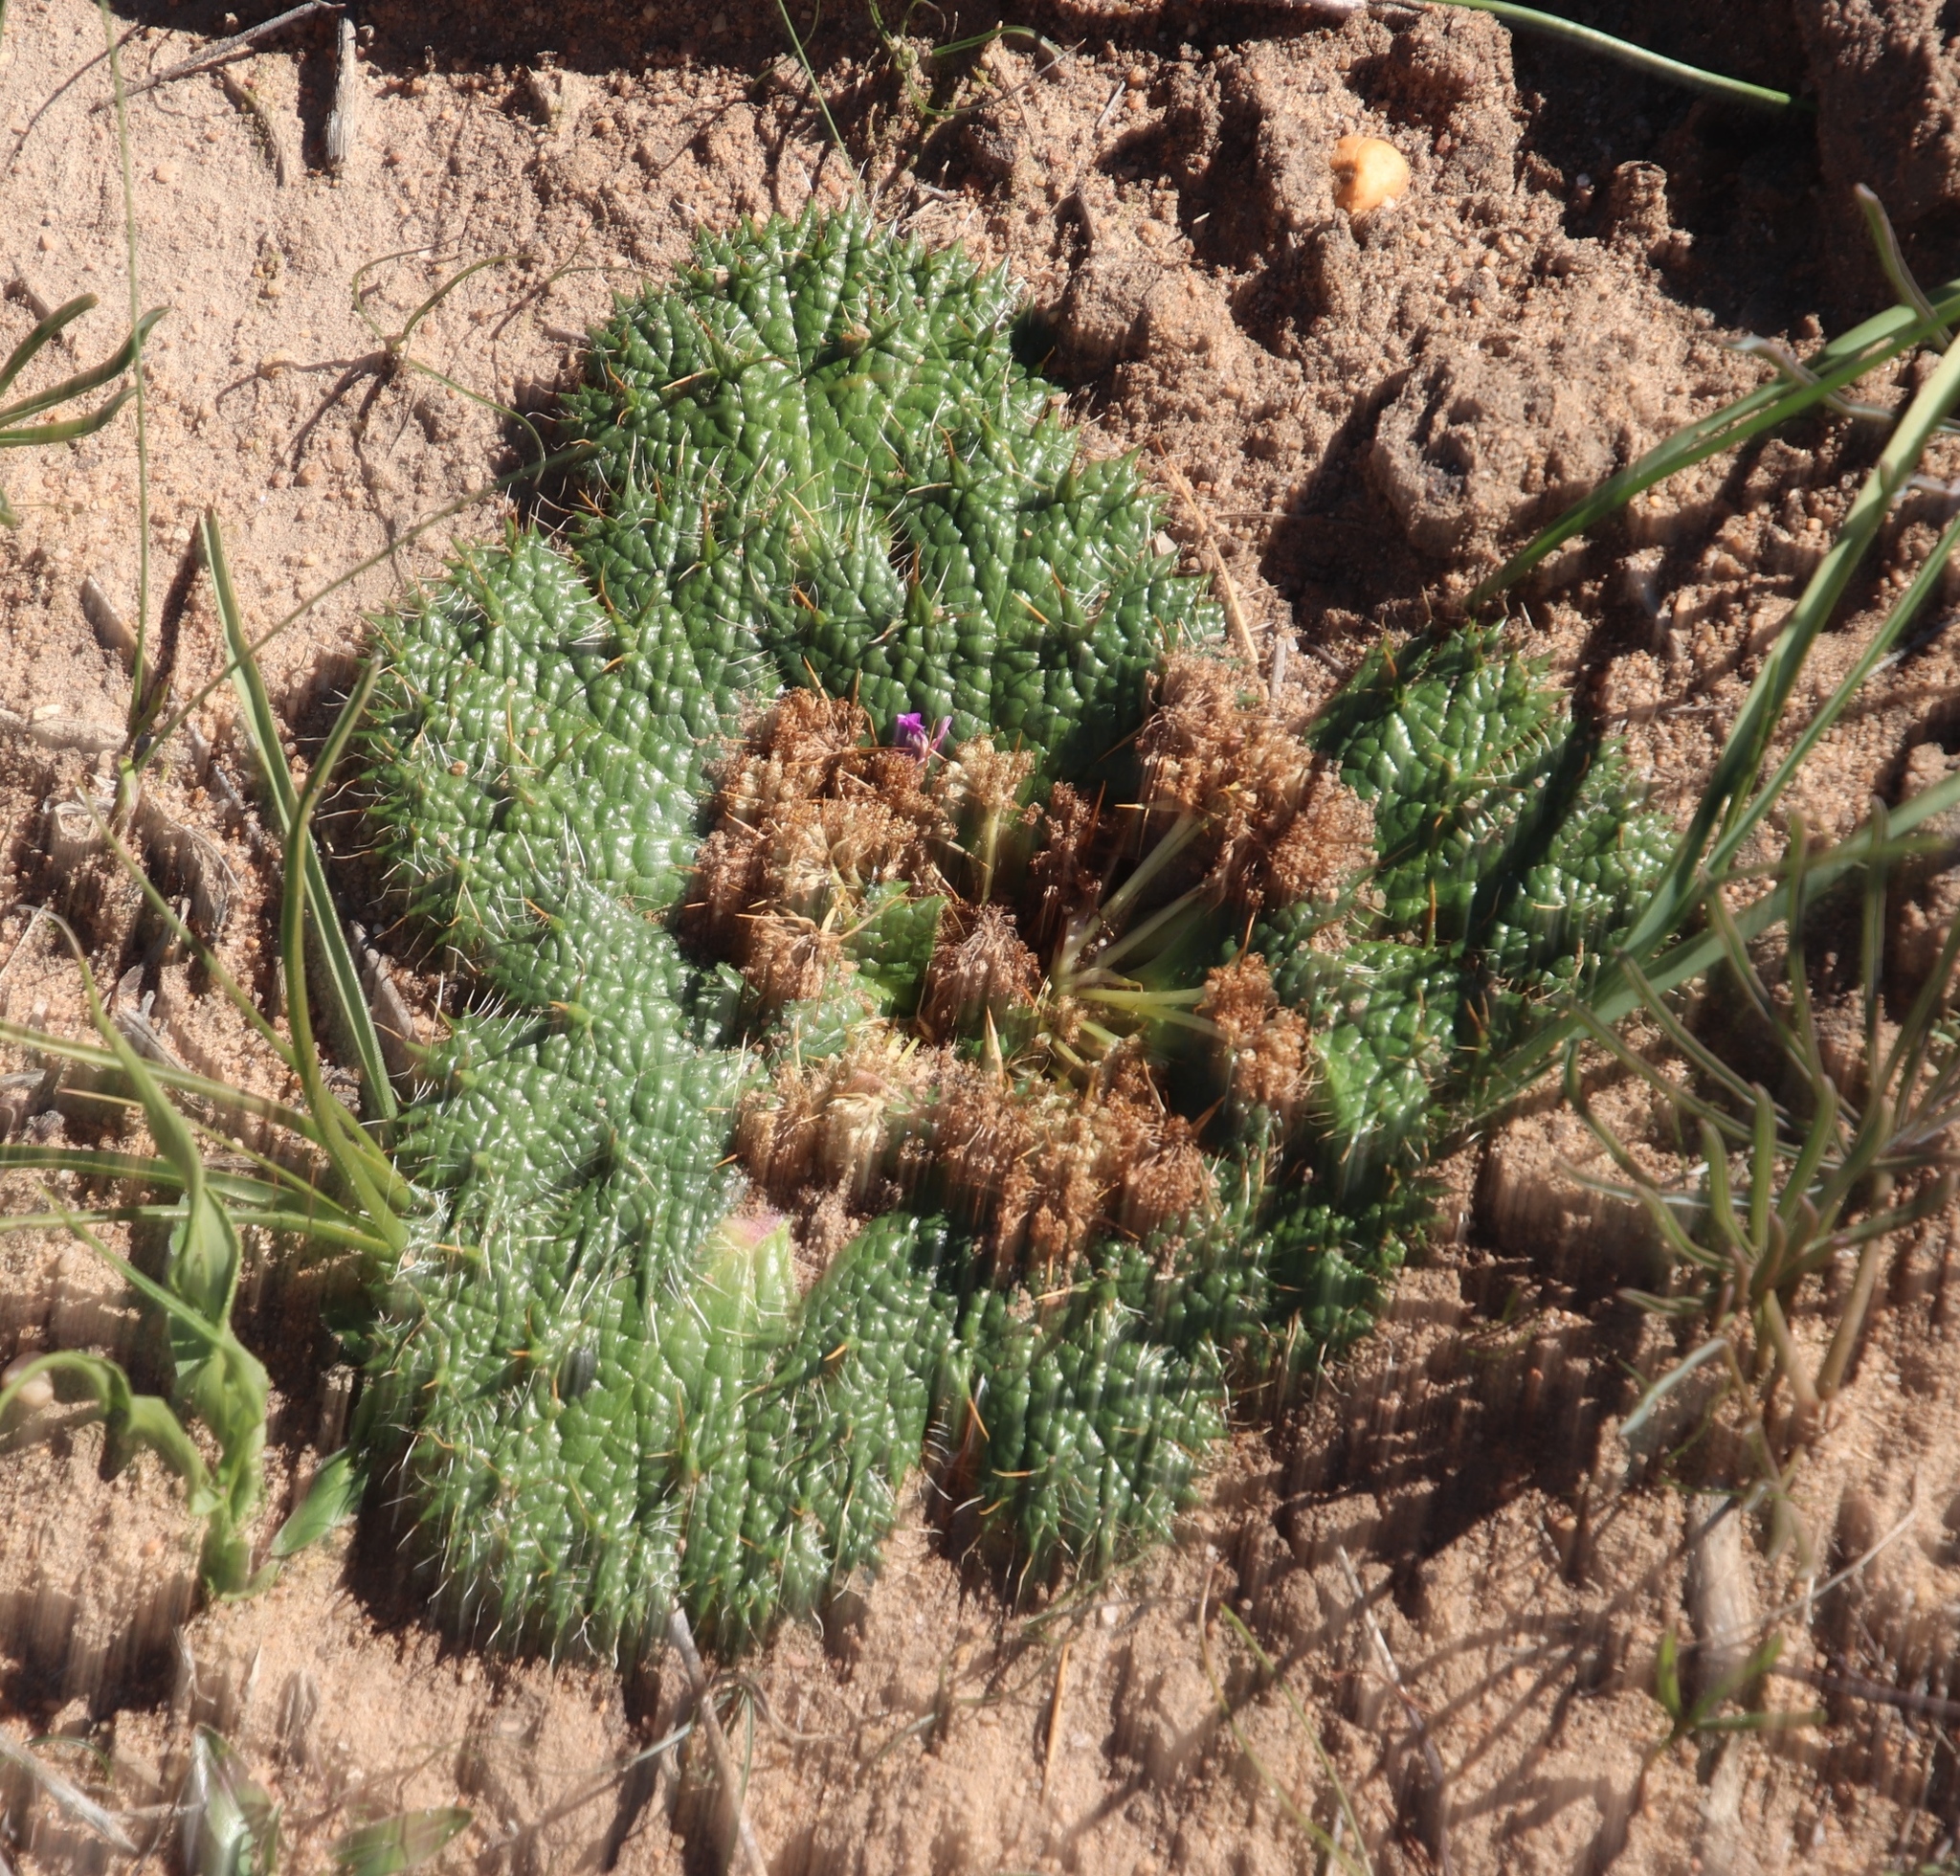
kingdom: Plantae
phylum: Tracheophyta
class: Magnoliopsida
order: Apiales
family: Apiaceae
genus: Arctopus
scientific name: Arctopus monacanthus
